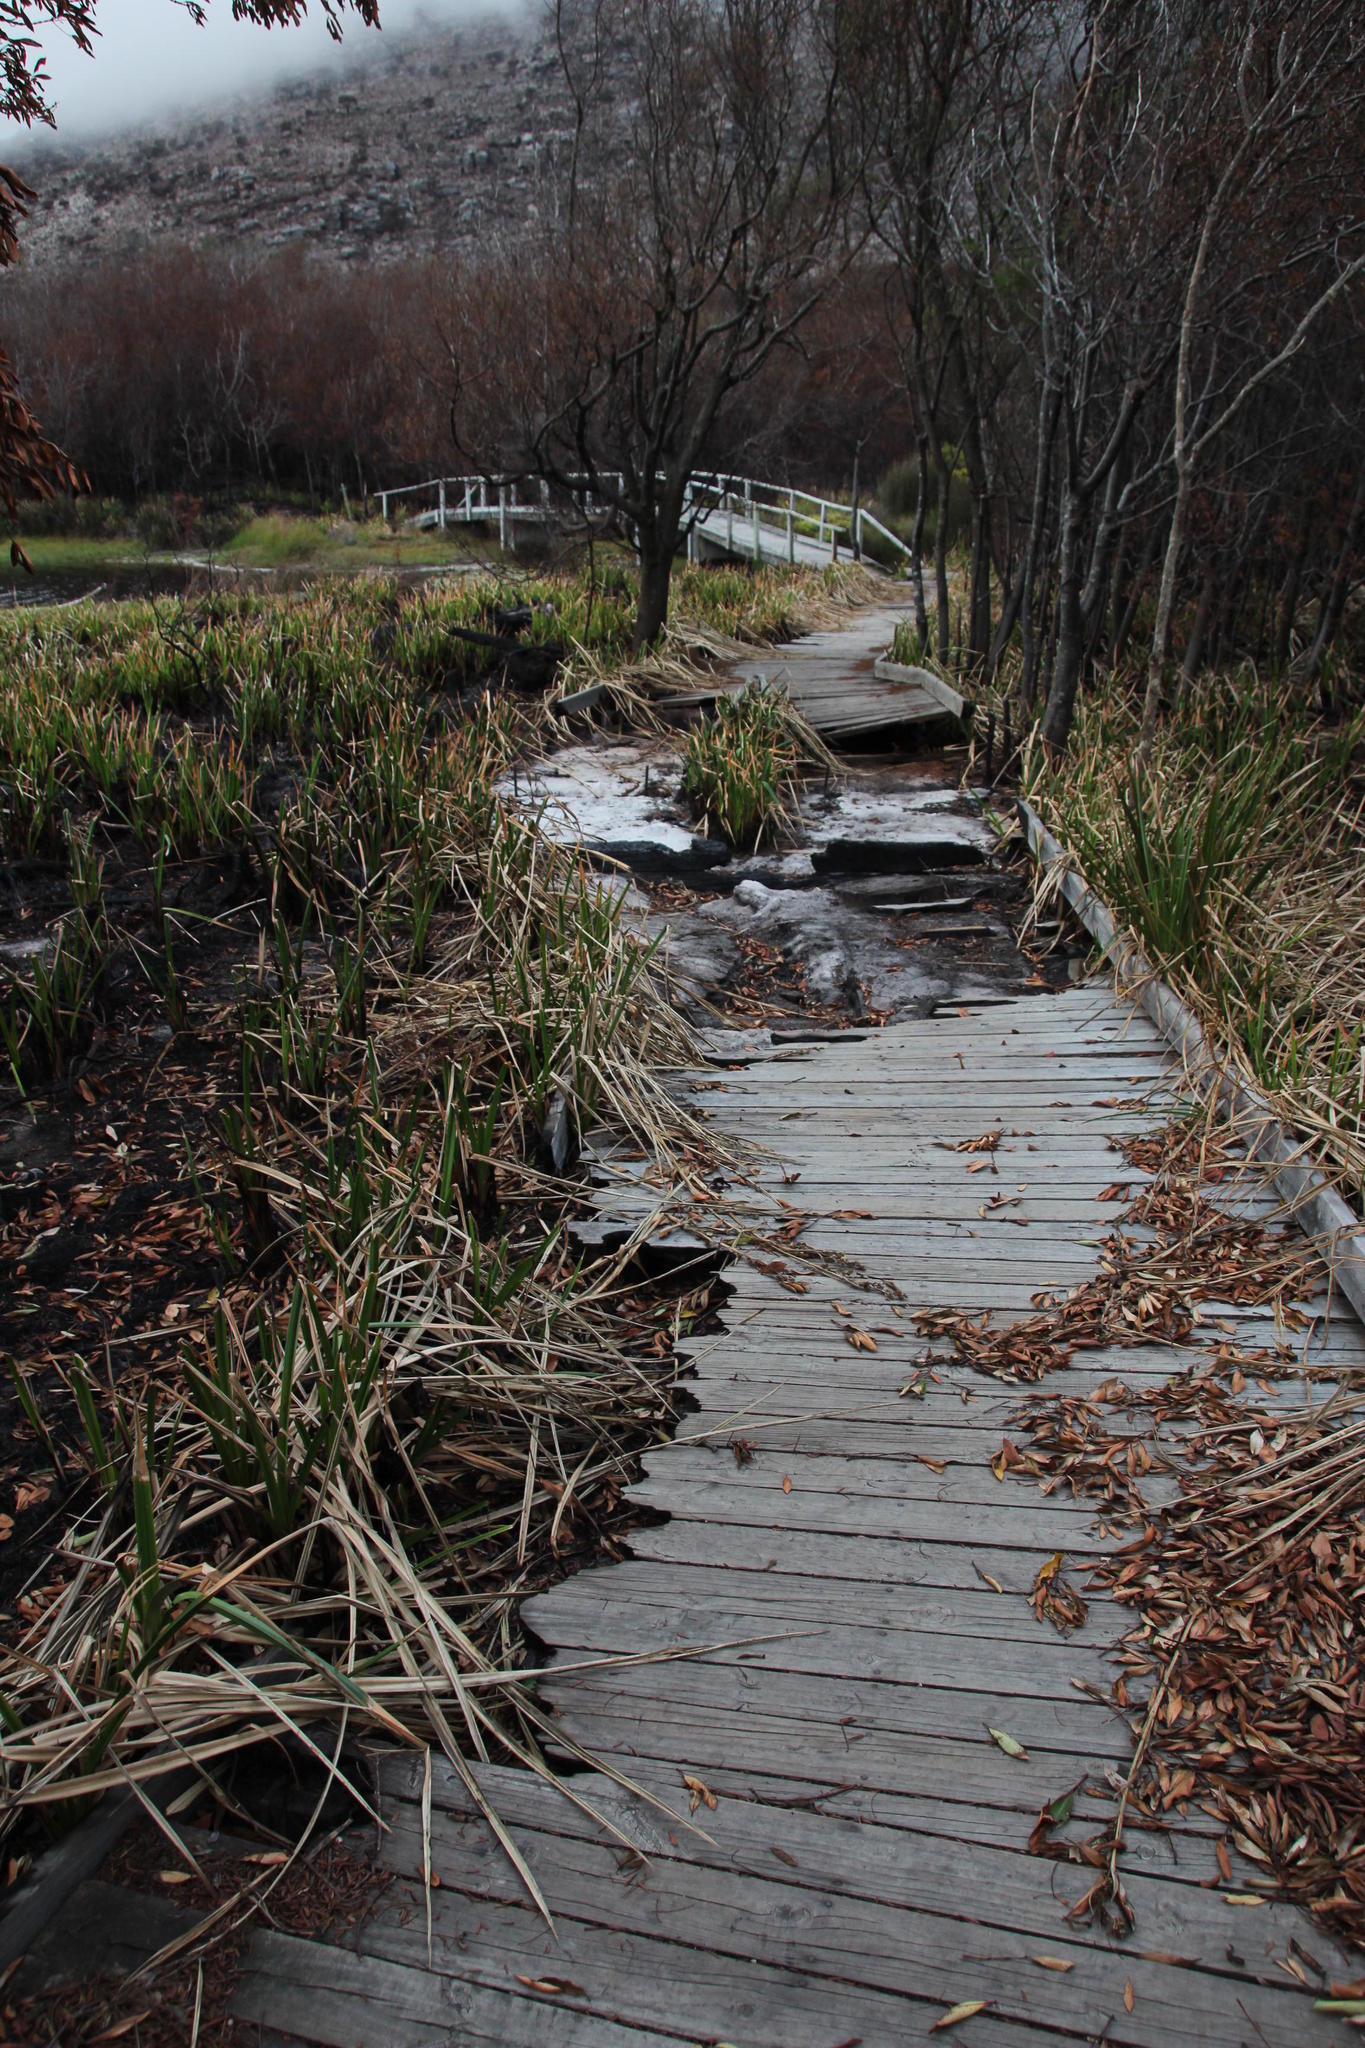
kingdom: Plantae
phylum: Tracheophyta
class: Magnoliopsida
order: Fabales
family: Fabaceae
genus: Virgilia
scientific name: Virgilia oroboides
